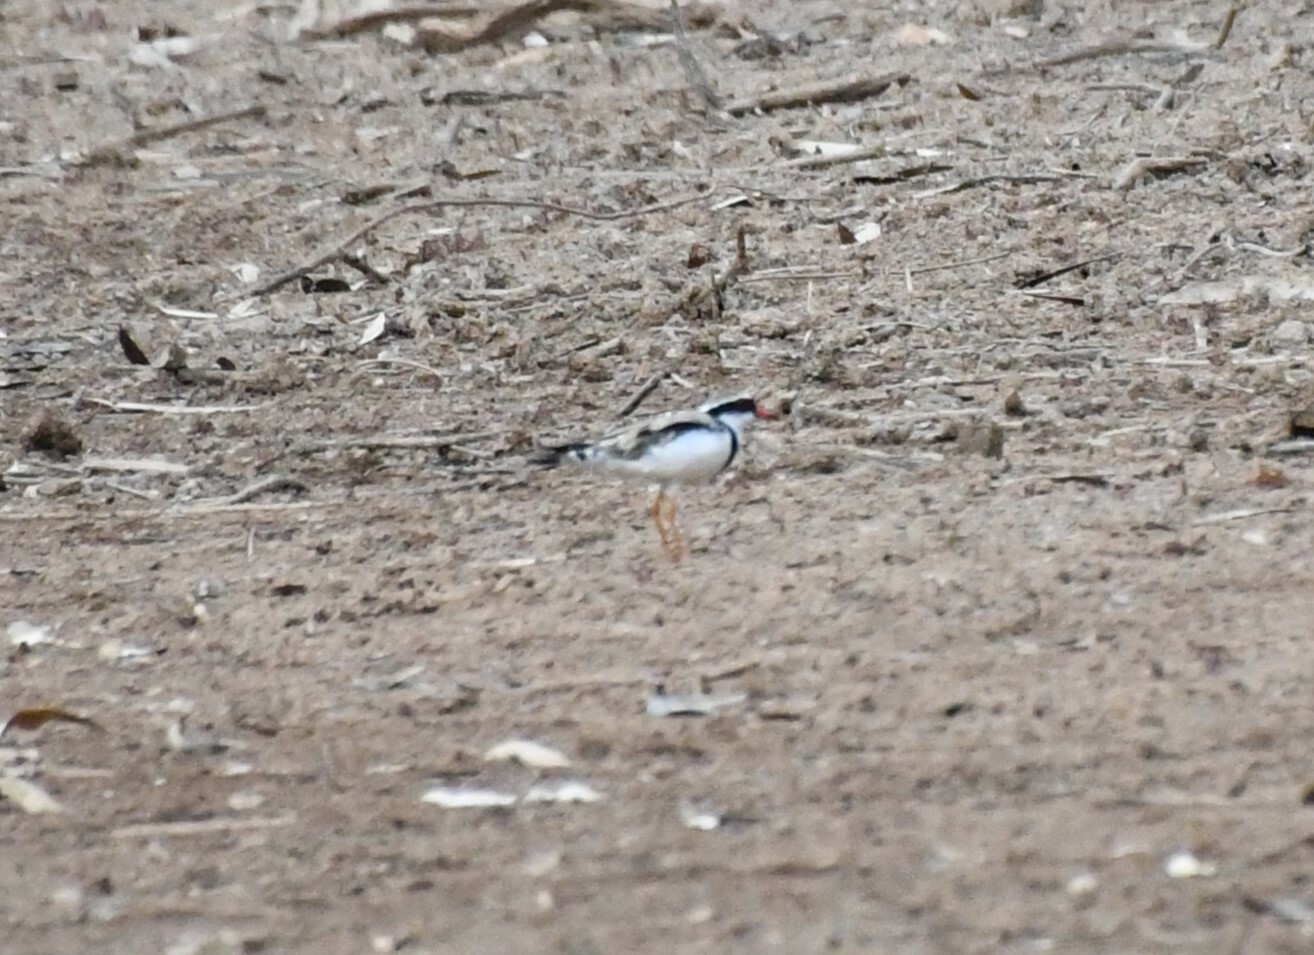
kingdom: Animalia
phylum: Chordata
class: Aves
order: Charadriiformes
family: Charadriidae
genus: Elseyornis
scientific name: Elseyornis melanops
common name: Black-fronted dotterel
